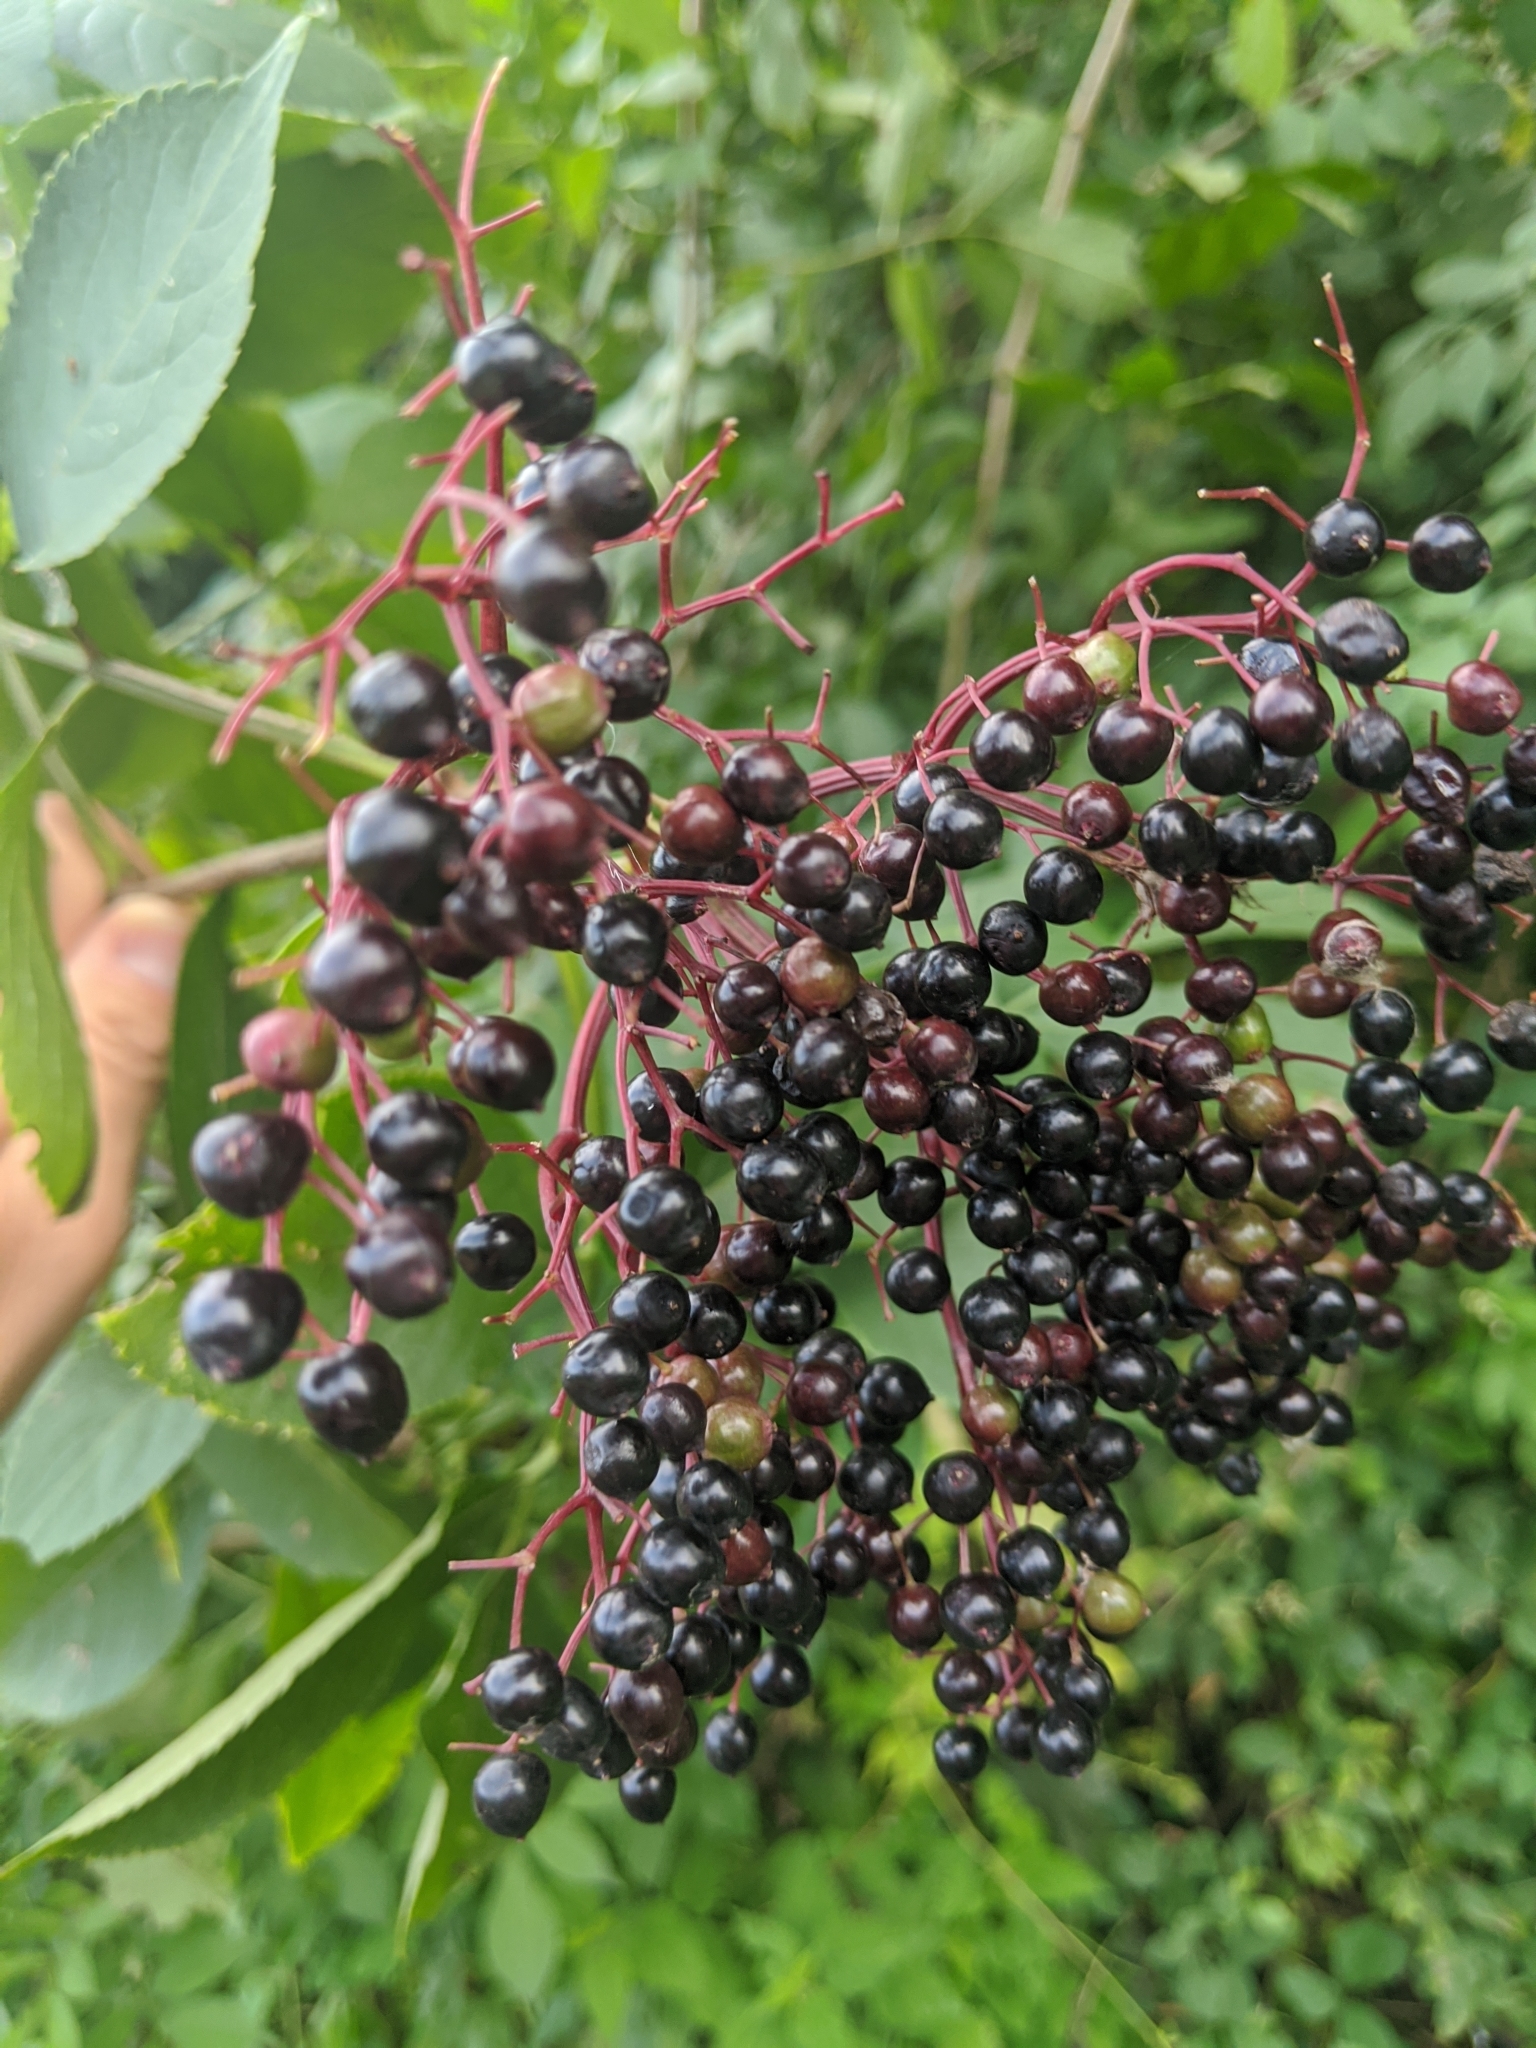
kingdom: Plantae
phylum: Tracheophyta
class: Magnoliopsida
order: Dipsacales
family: Viburnaceae
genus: Sambucus
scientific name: Sambucus nigra
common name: Elder
